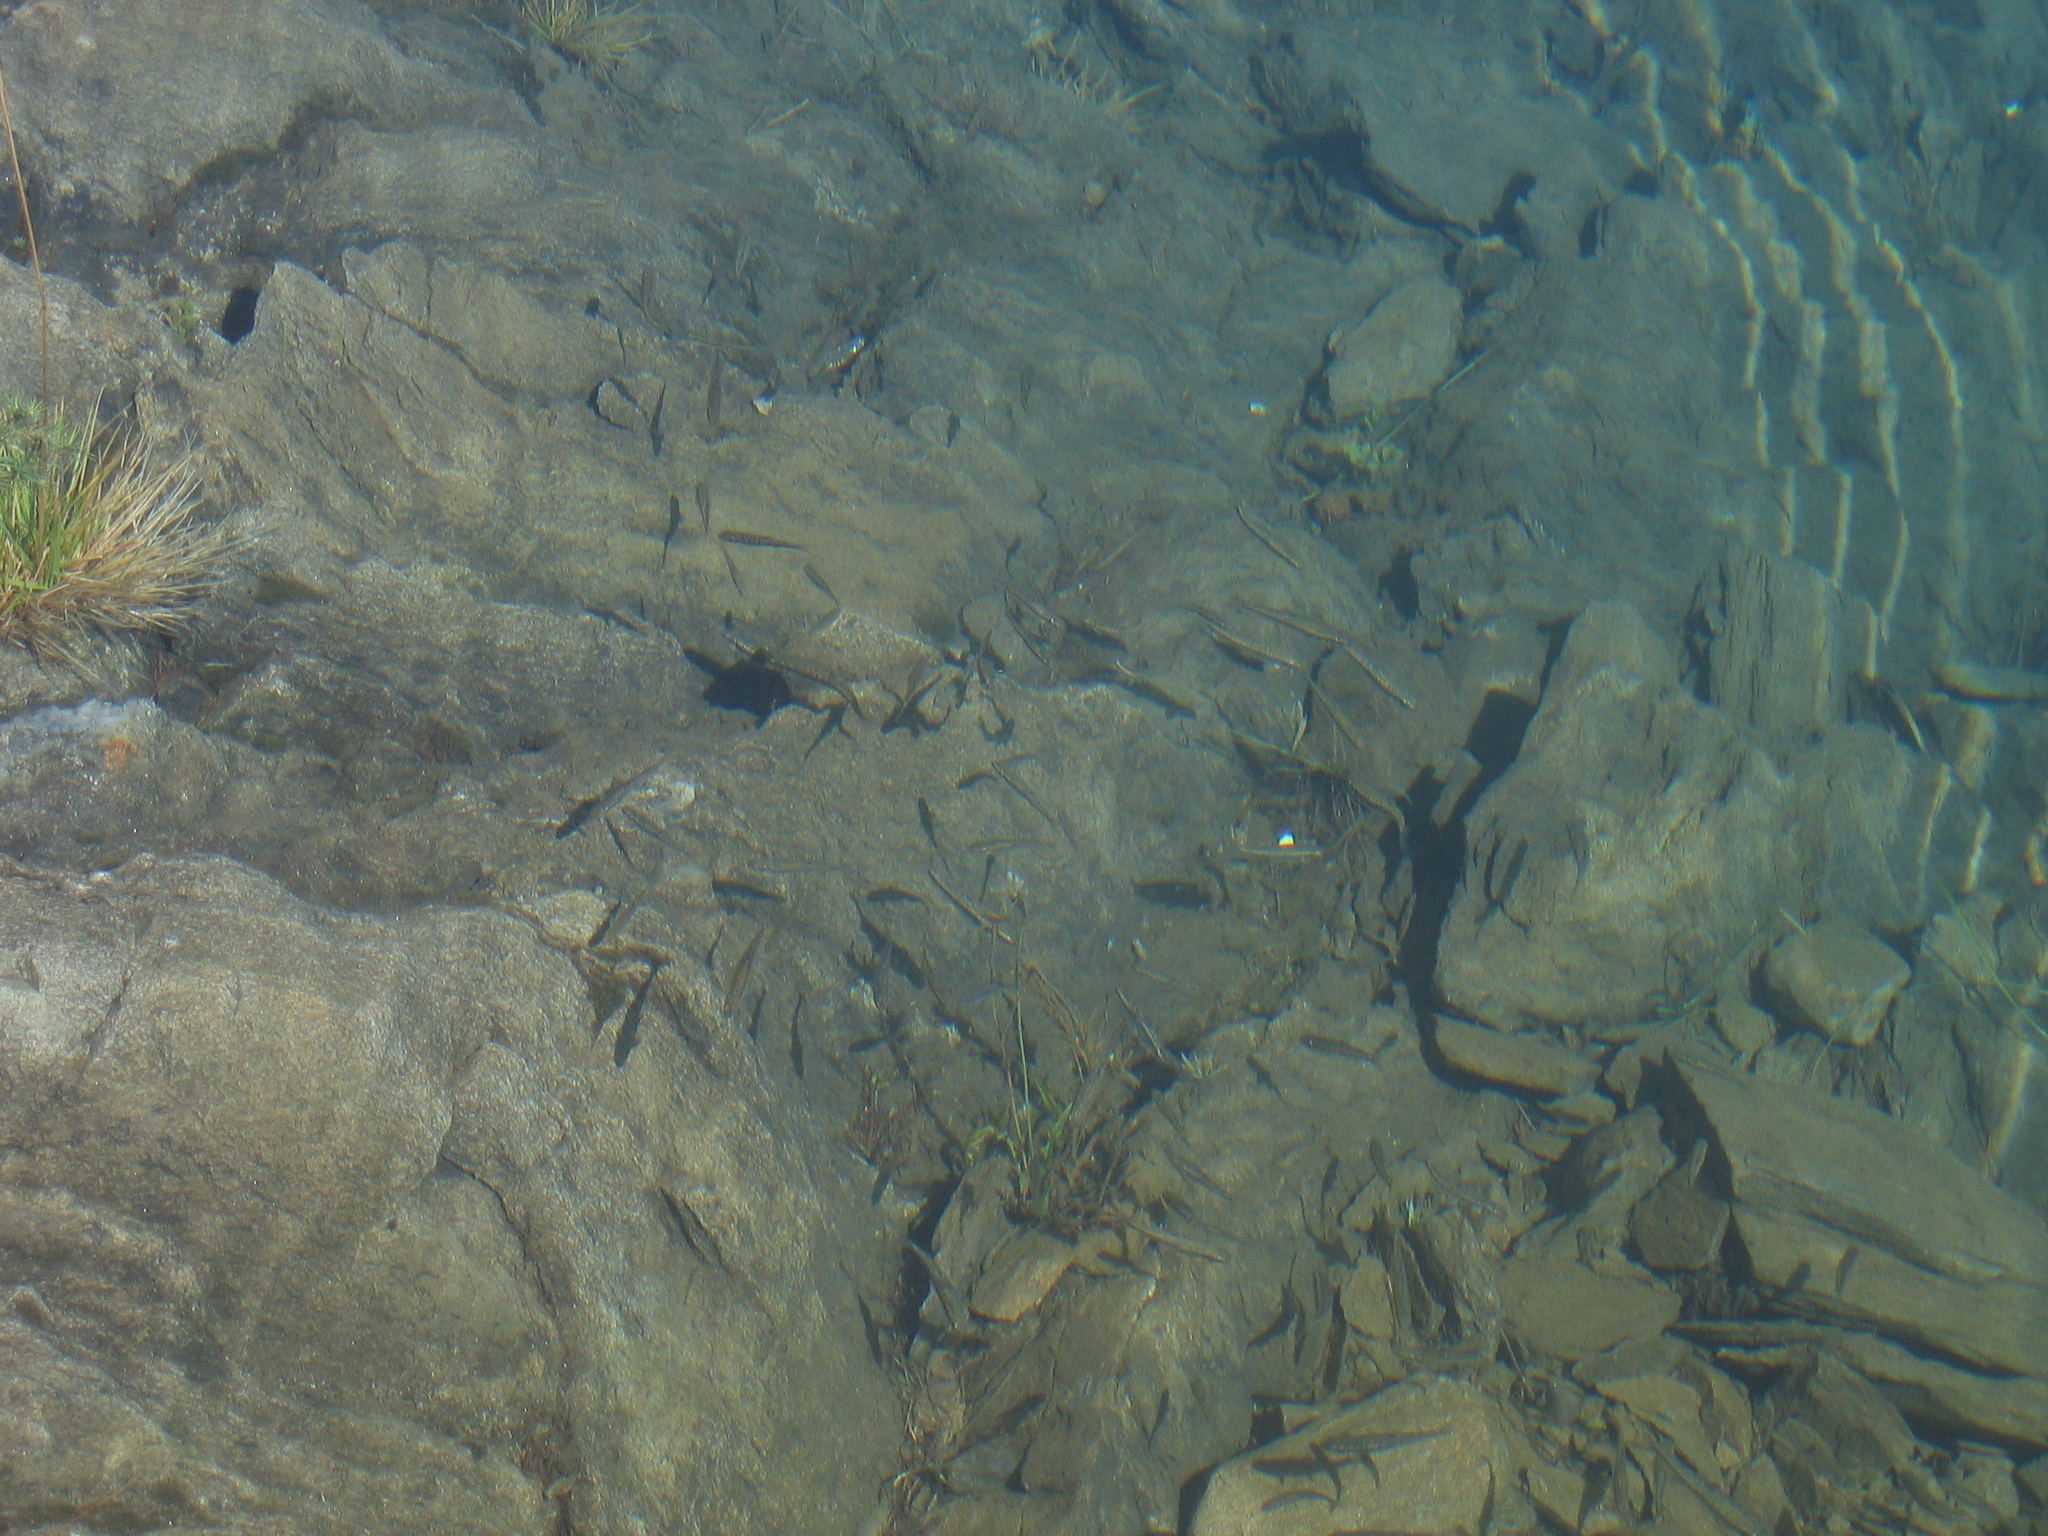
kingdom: Animalia
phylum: Chordata
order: Cypriniformes
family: Cyprinidae
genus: Phoxinus
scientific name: Phoxinus
